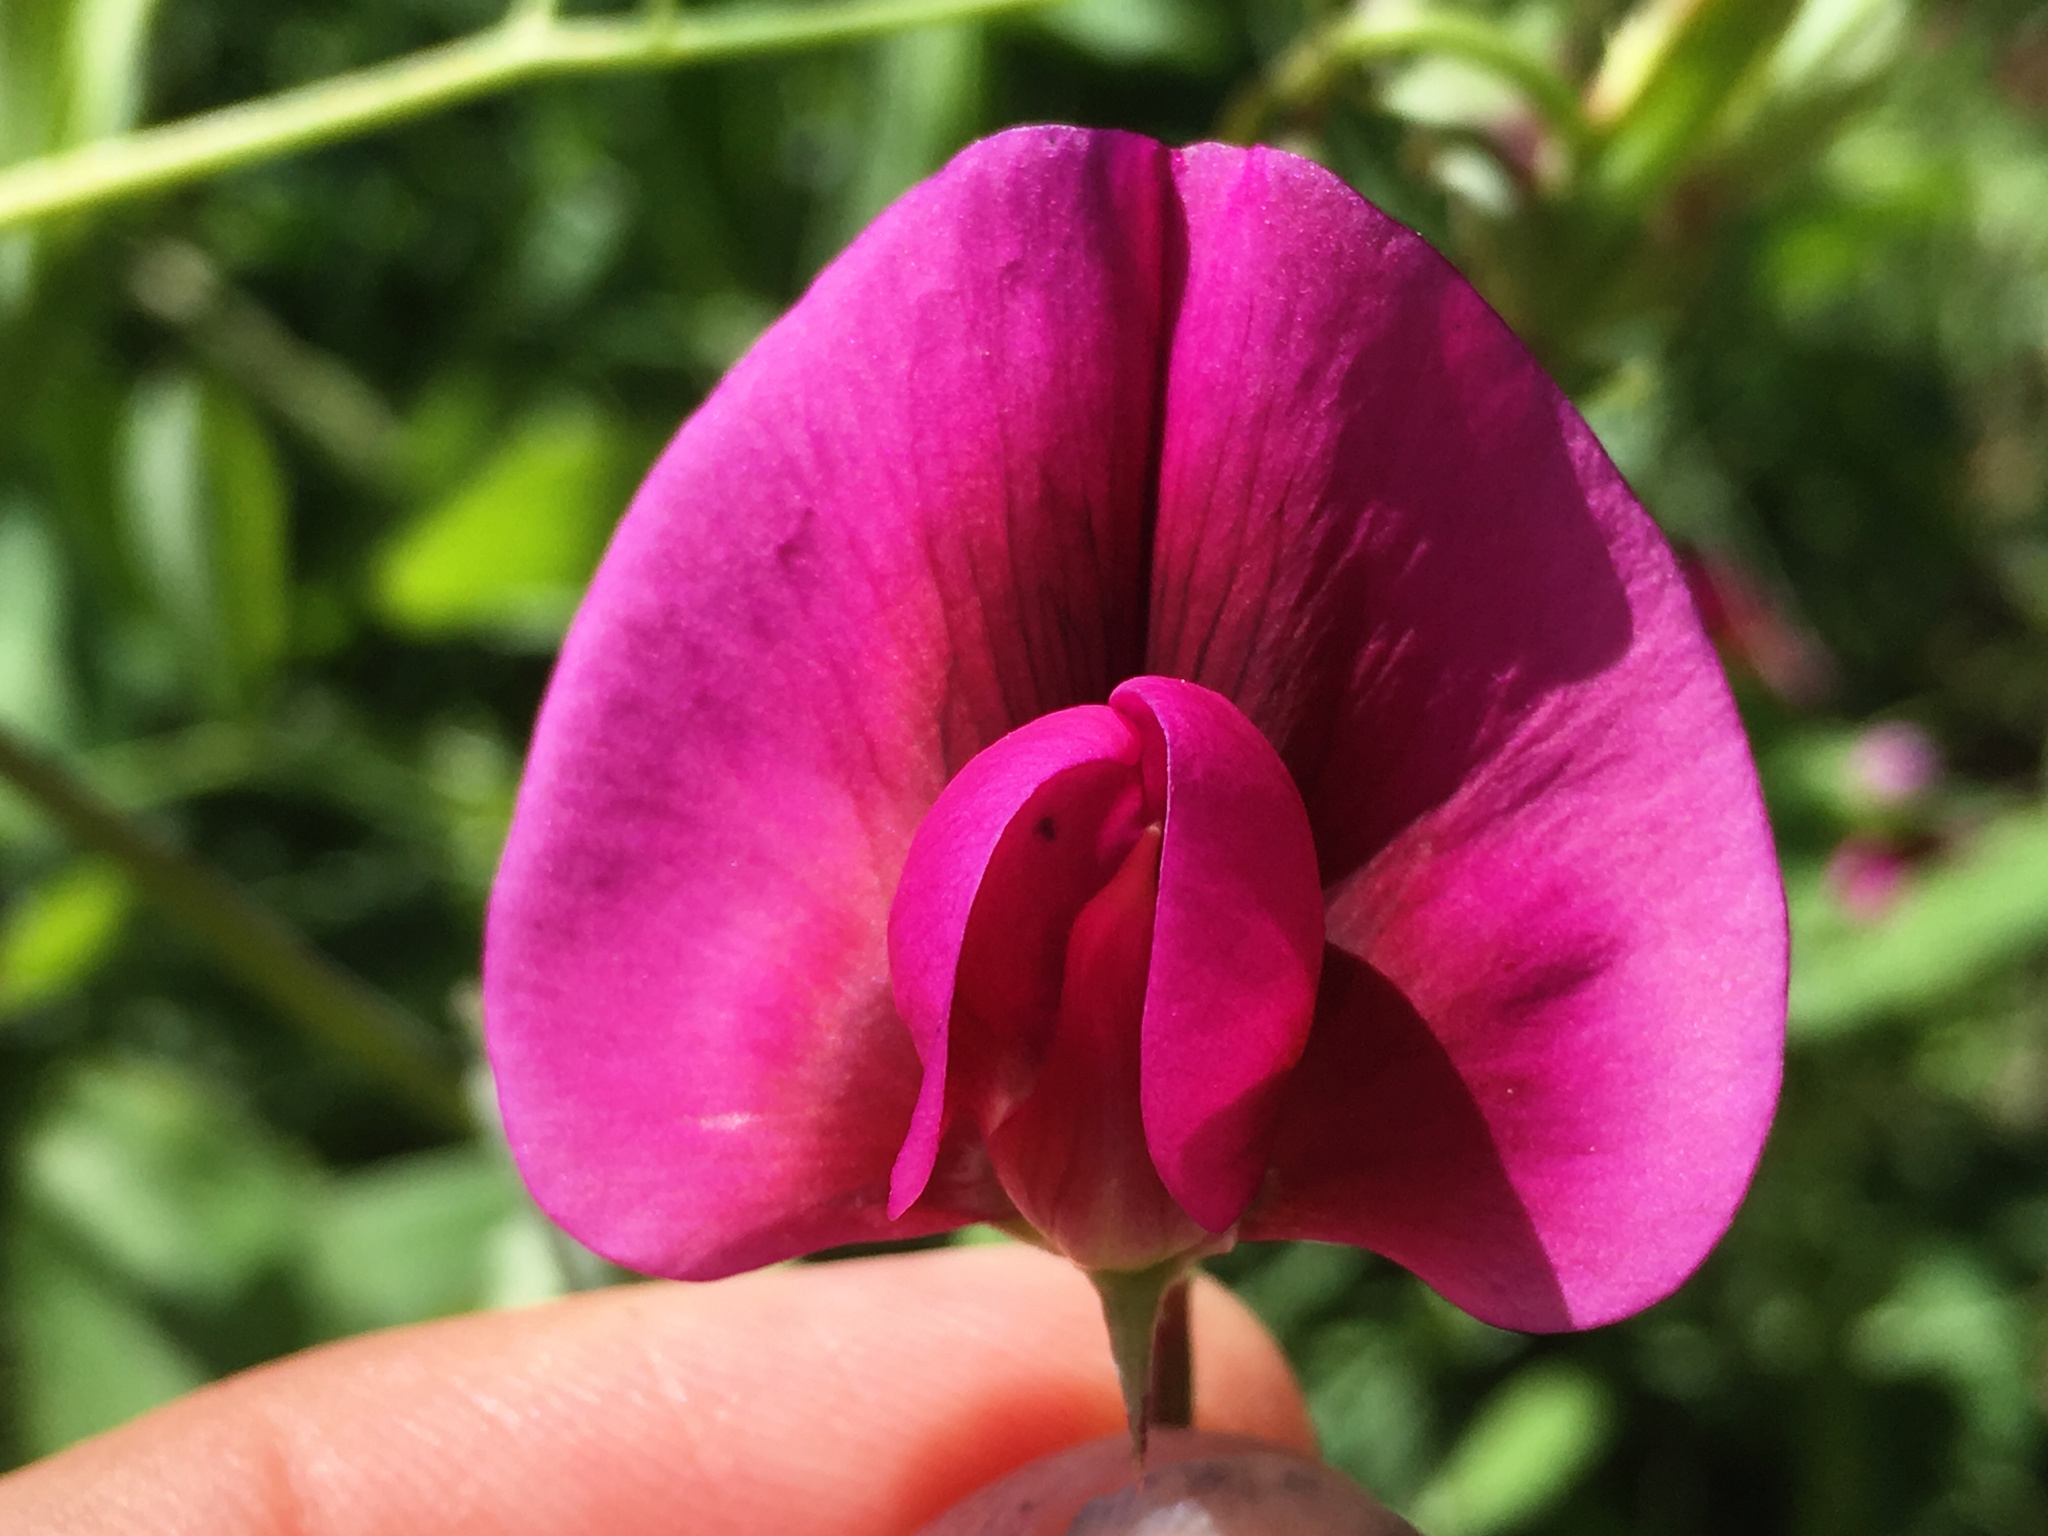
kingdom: Plantae
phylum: Tracheophyta
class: Magnoliopsida
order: Fabales
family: Fabaceae
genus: Lathyrus
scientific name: Lathyrus tingitanus
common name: Tangier pea
